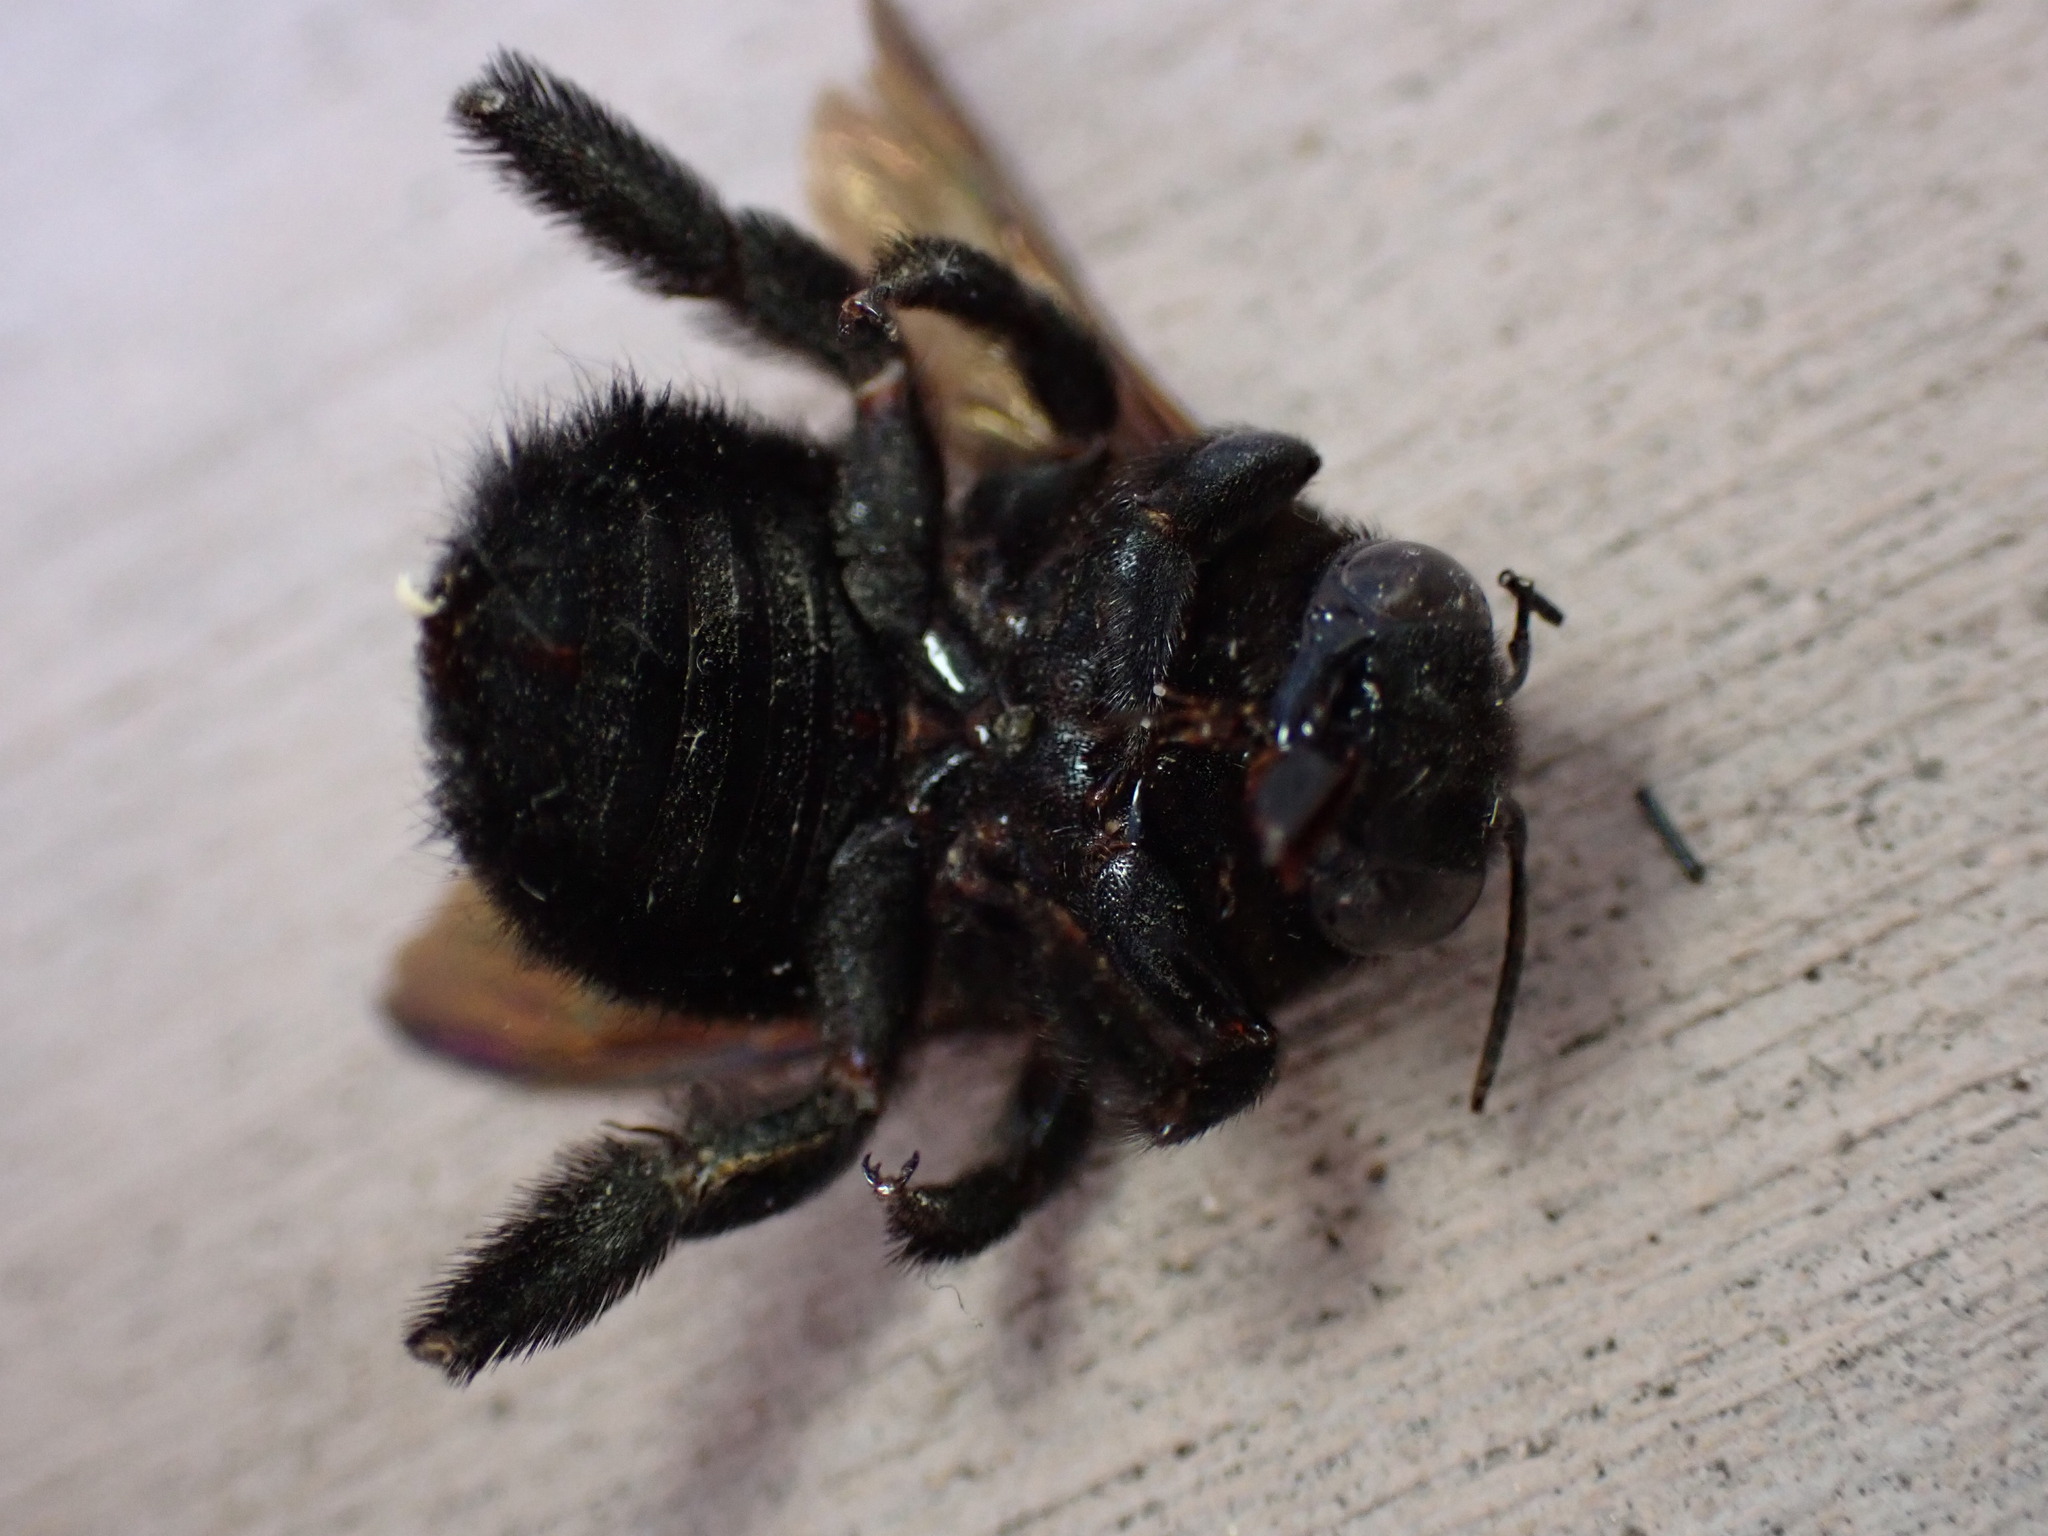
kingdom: Animalia
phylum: Arthropoda
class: Insecta
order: Hymenoptera
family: Apidae
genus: Xylocopa
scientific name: Xylocopa sonorina
